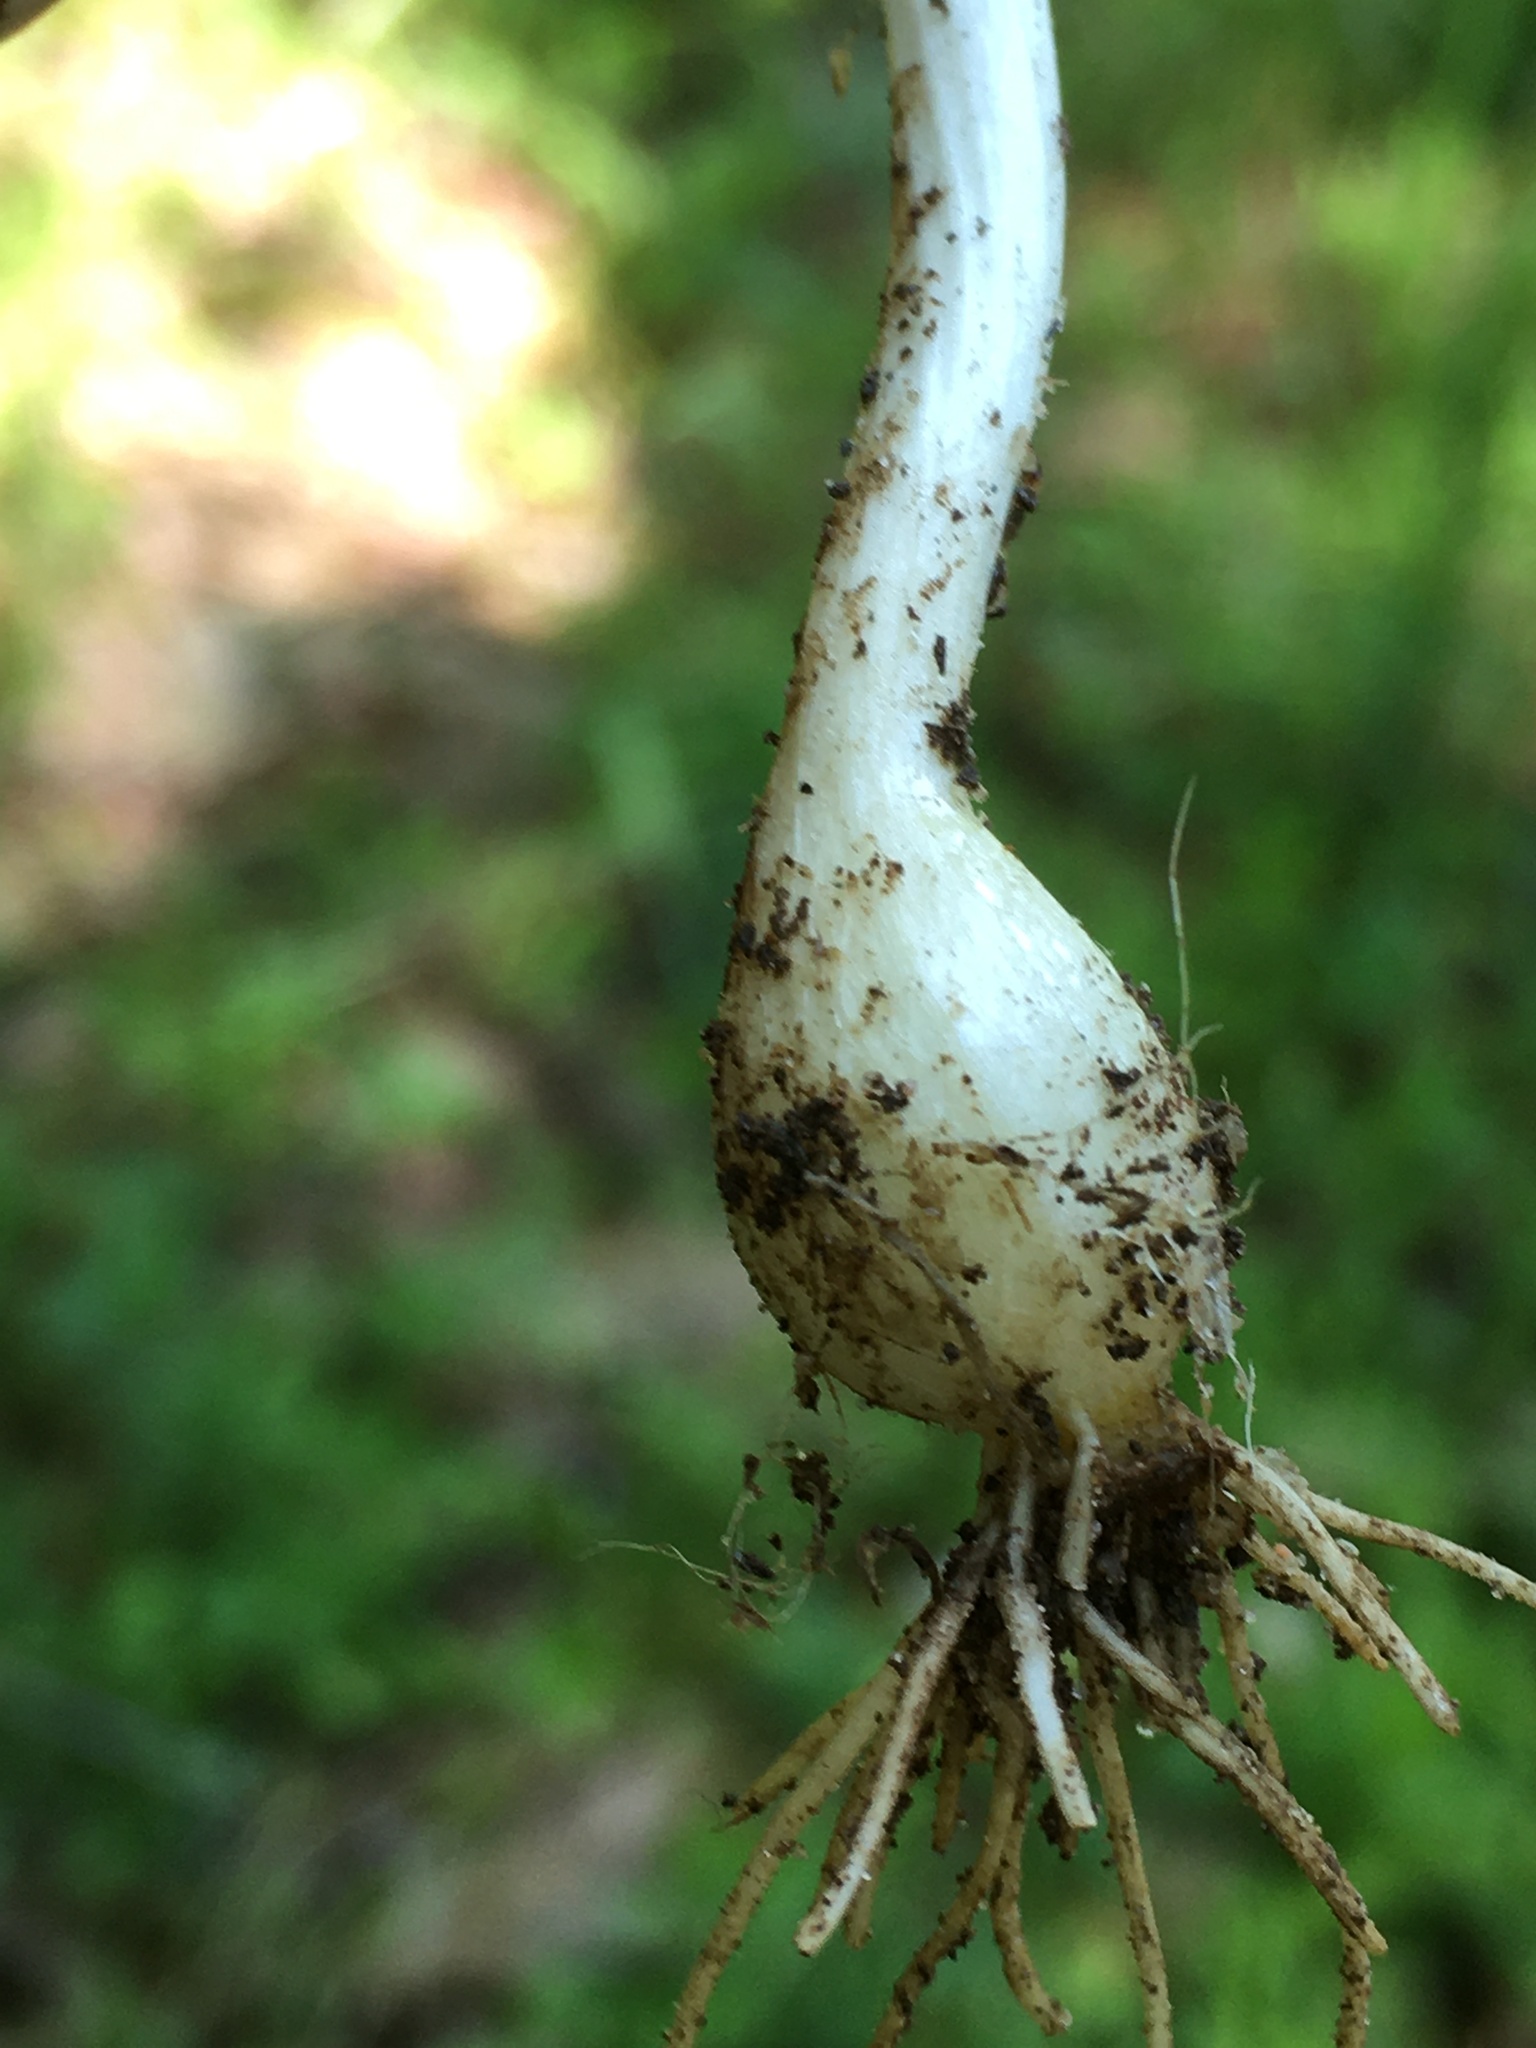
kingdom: Plantae
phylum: Tracheophyta
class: Liliopsida
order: Asparagales
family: Amaryllidaceae
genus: Allium
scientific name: Allium canadense
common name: Meadow garlic
